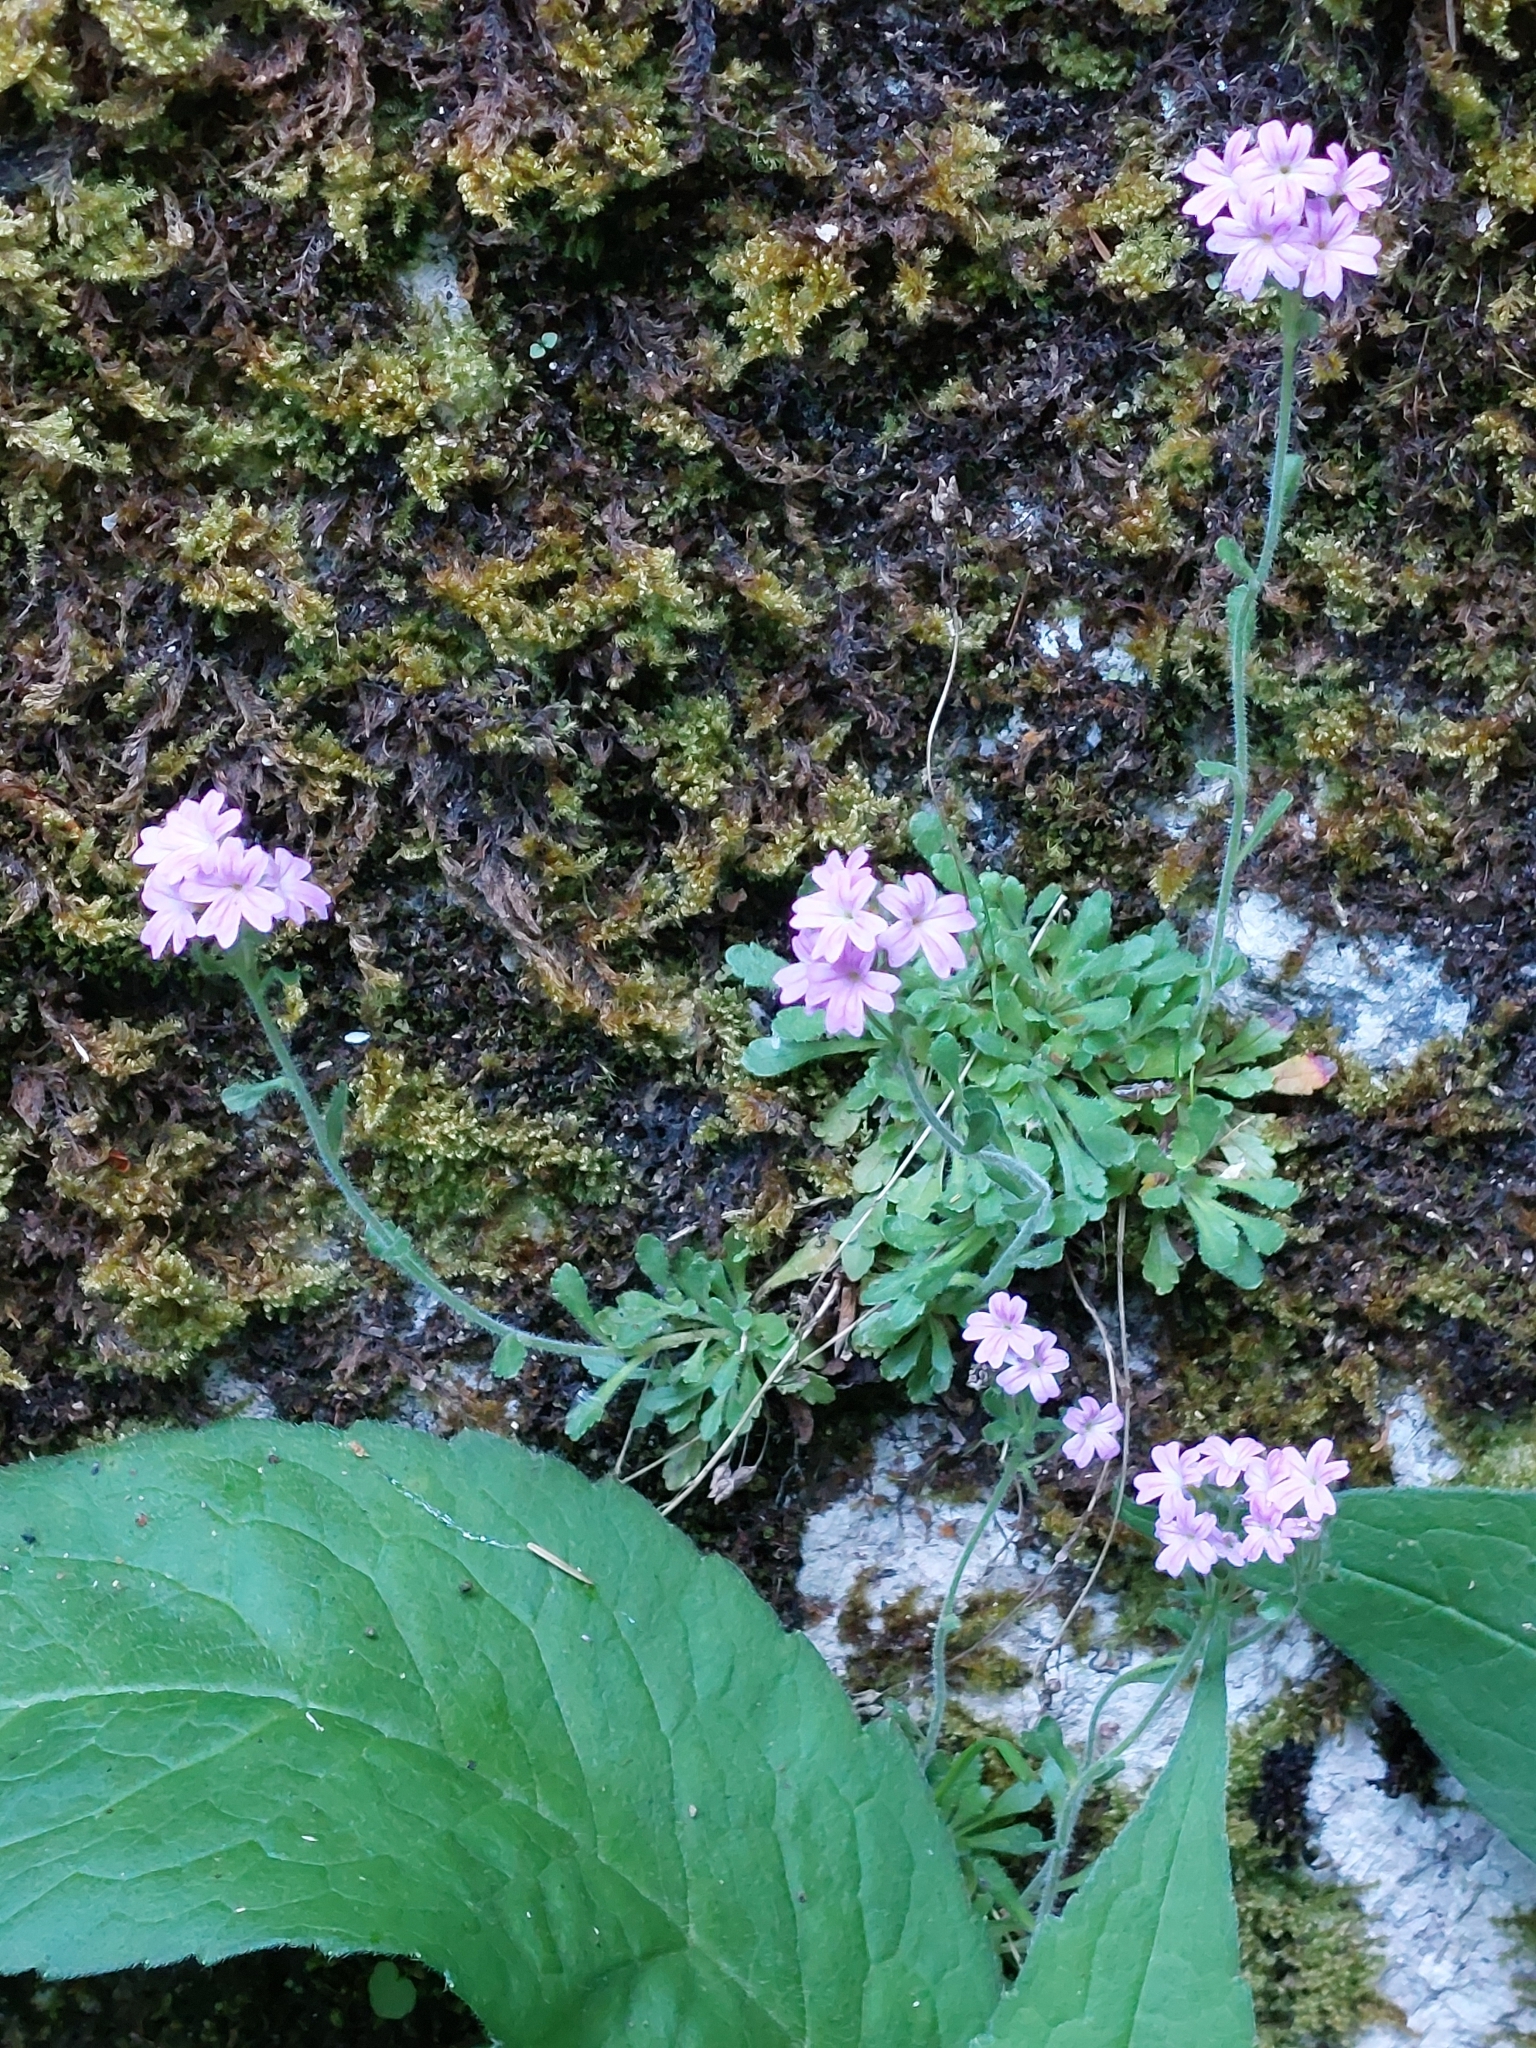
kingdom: Plantae
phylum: Tracheophyta
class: Magnoliopsida
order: Lamiales
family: Plantaginaceae
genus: Erinus
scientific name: Erinus alpinus
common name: Fairy foxglove
